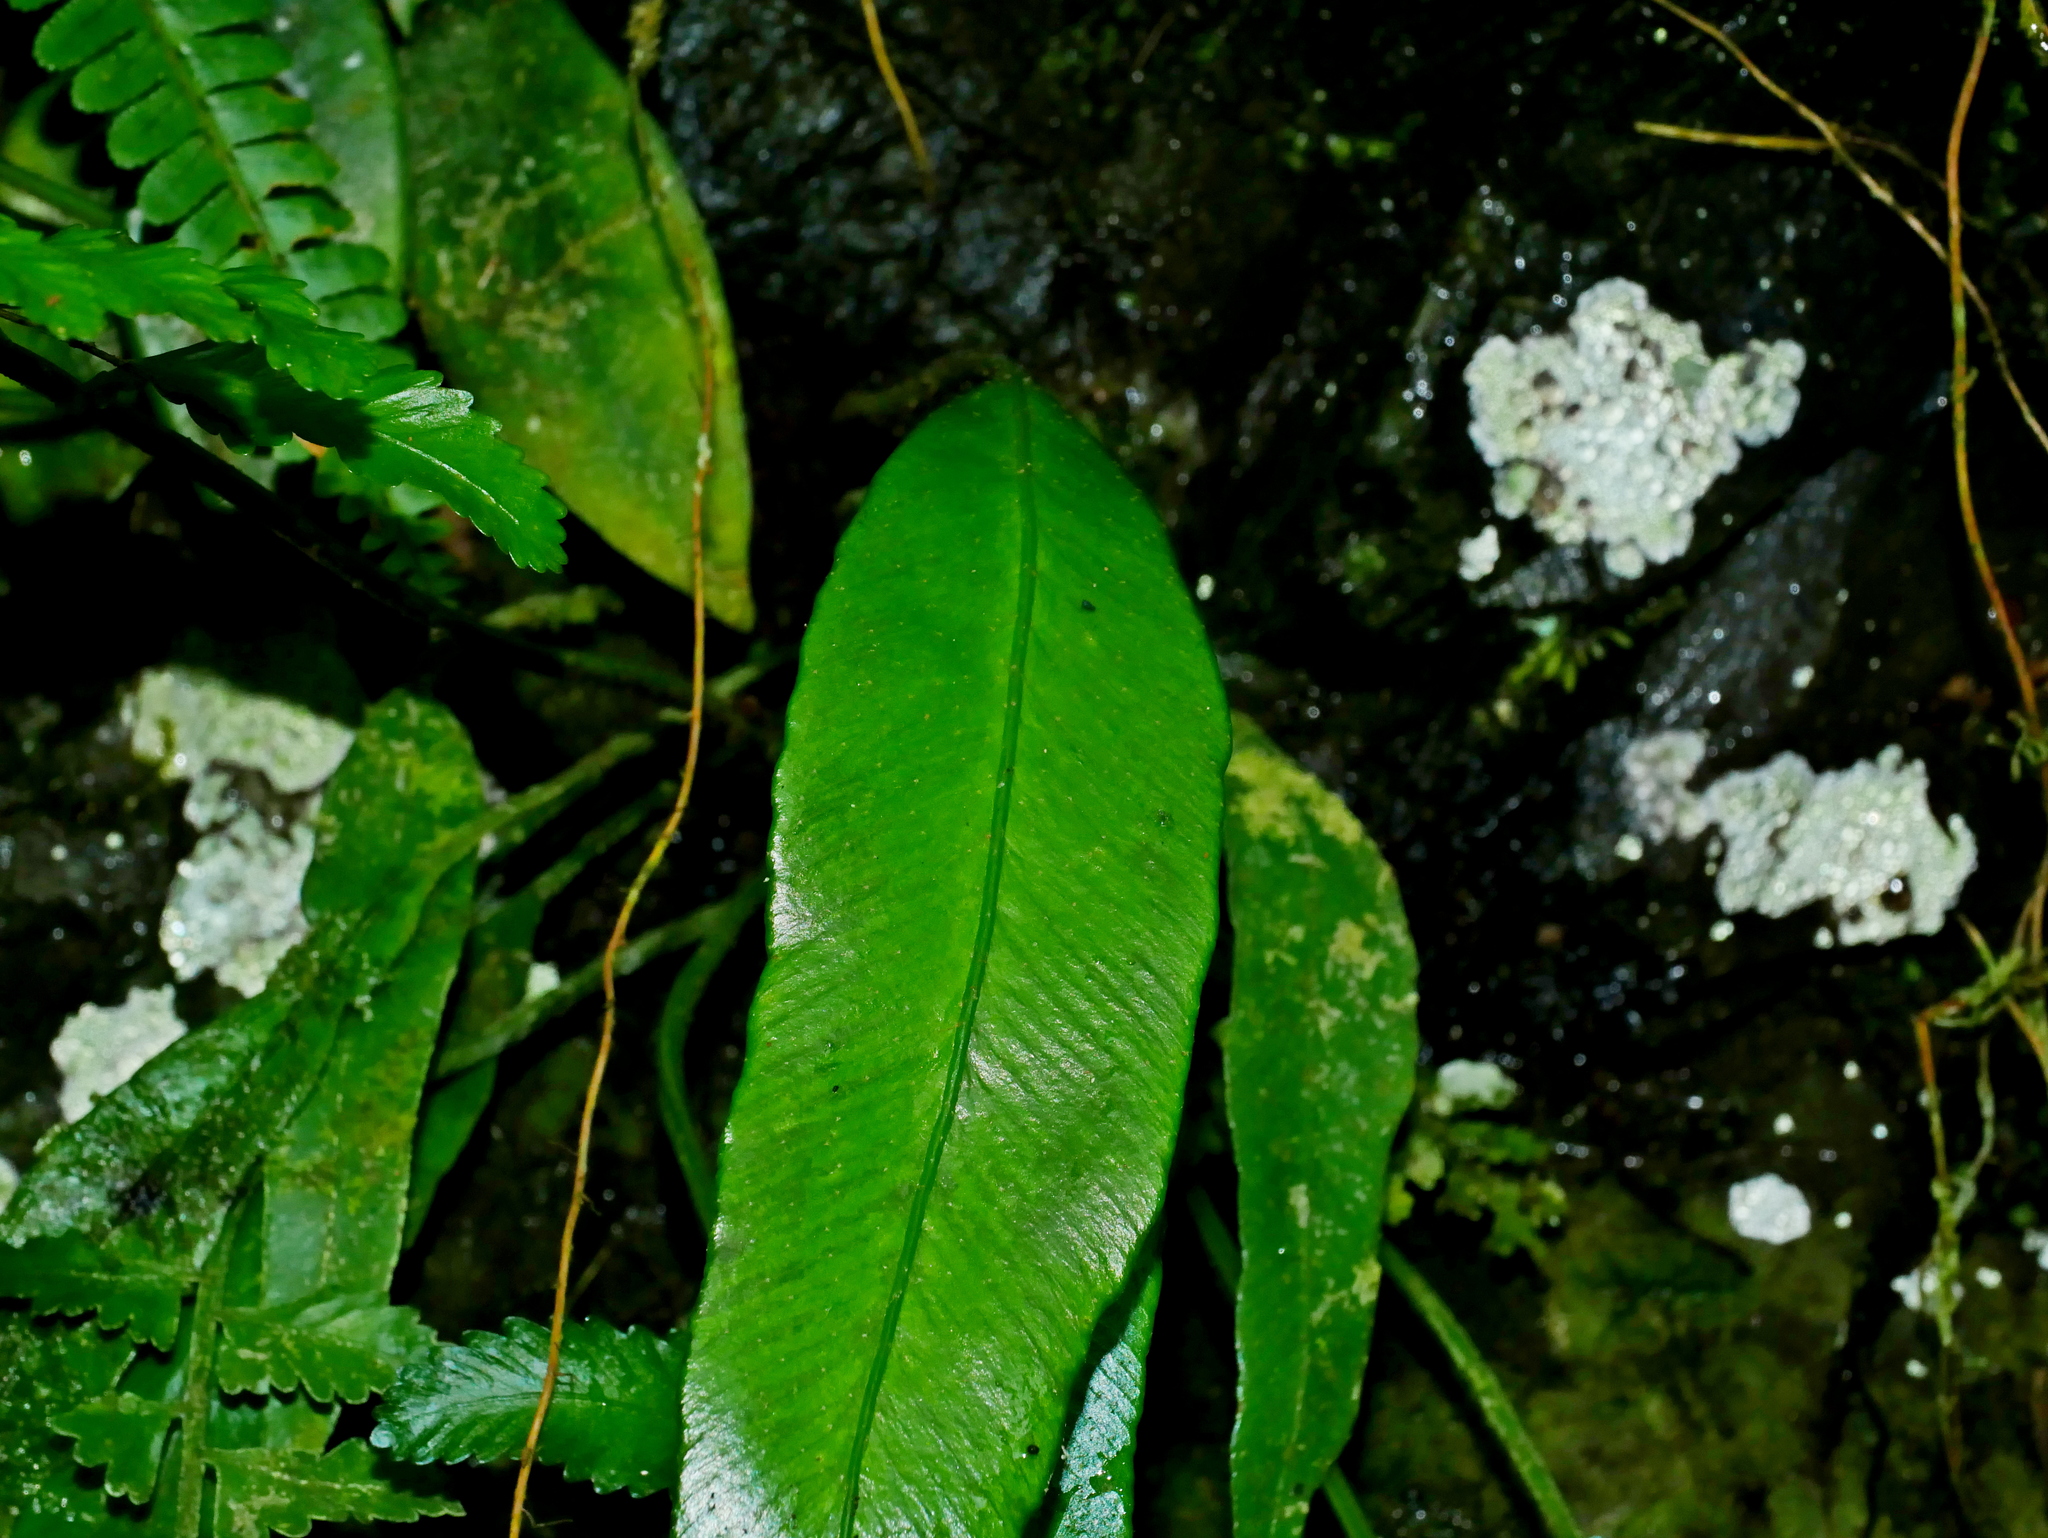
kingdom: Plantae
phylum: Tracheophyta
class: Polypodiopsida
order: Polypodiales
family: Aspleniaceae
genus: Asplenium
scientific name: Asplenium formosae
